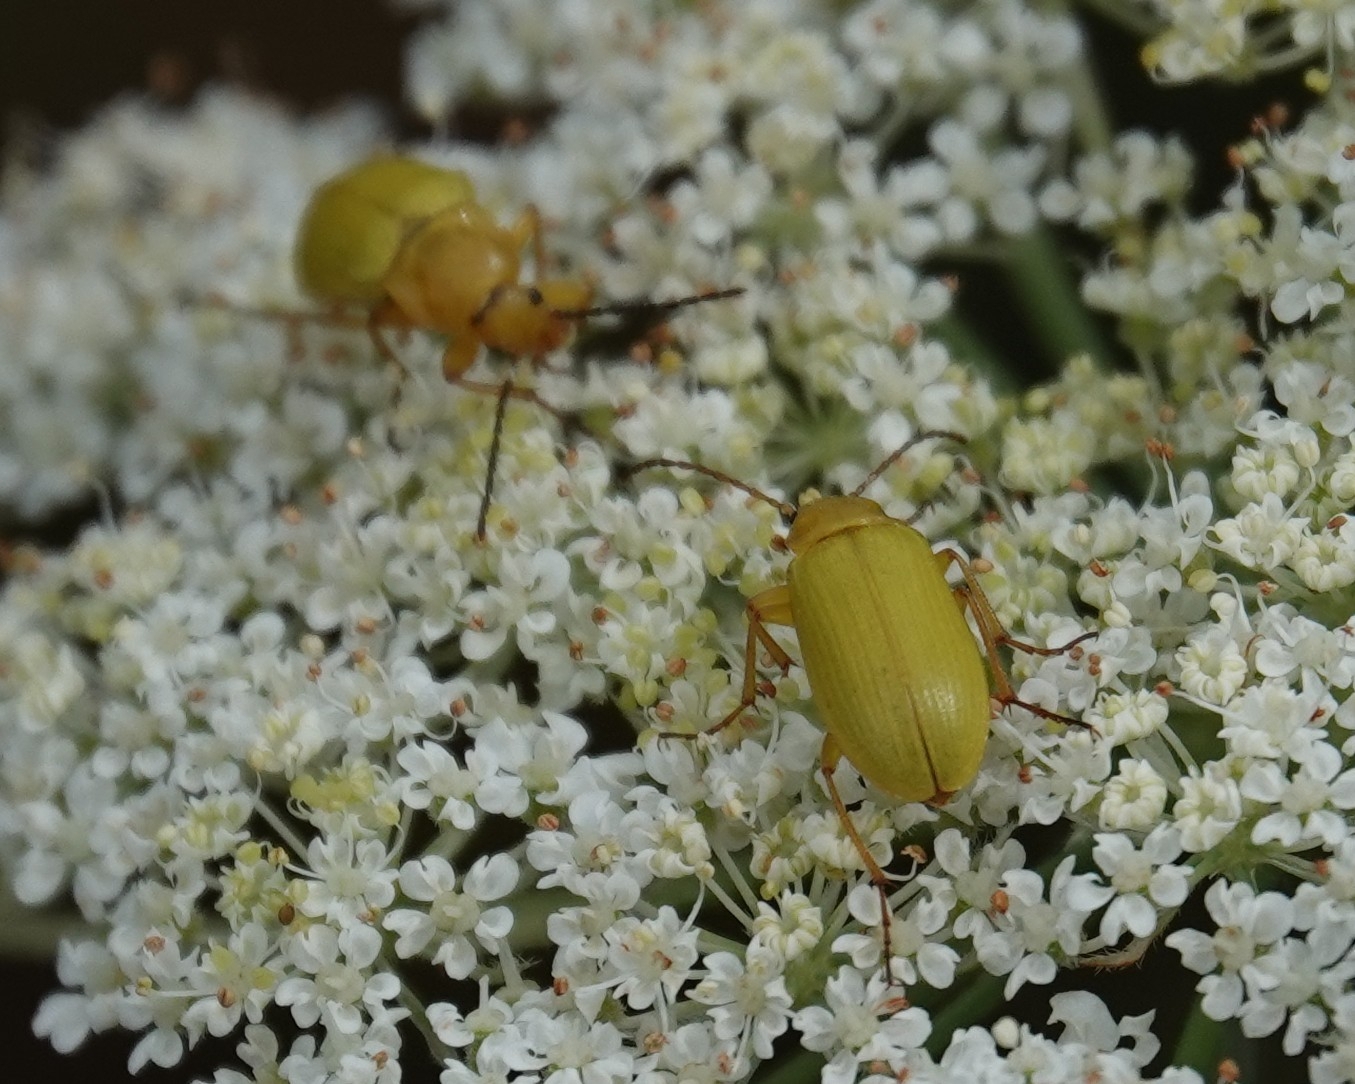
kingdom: Animalia
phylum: Arthropoda
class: Insecta
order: Coleoptera
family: Tenebrionidae
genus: Cteniopus
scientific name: Cteniopus sulphureus
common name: Sulphur beetle
